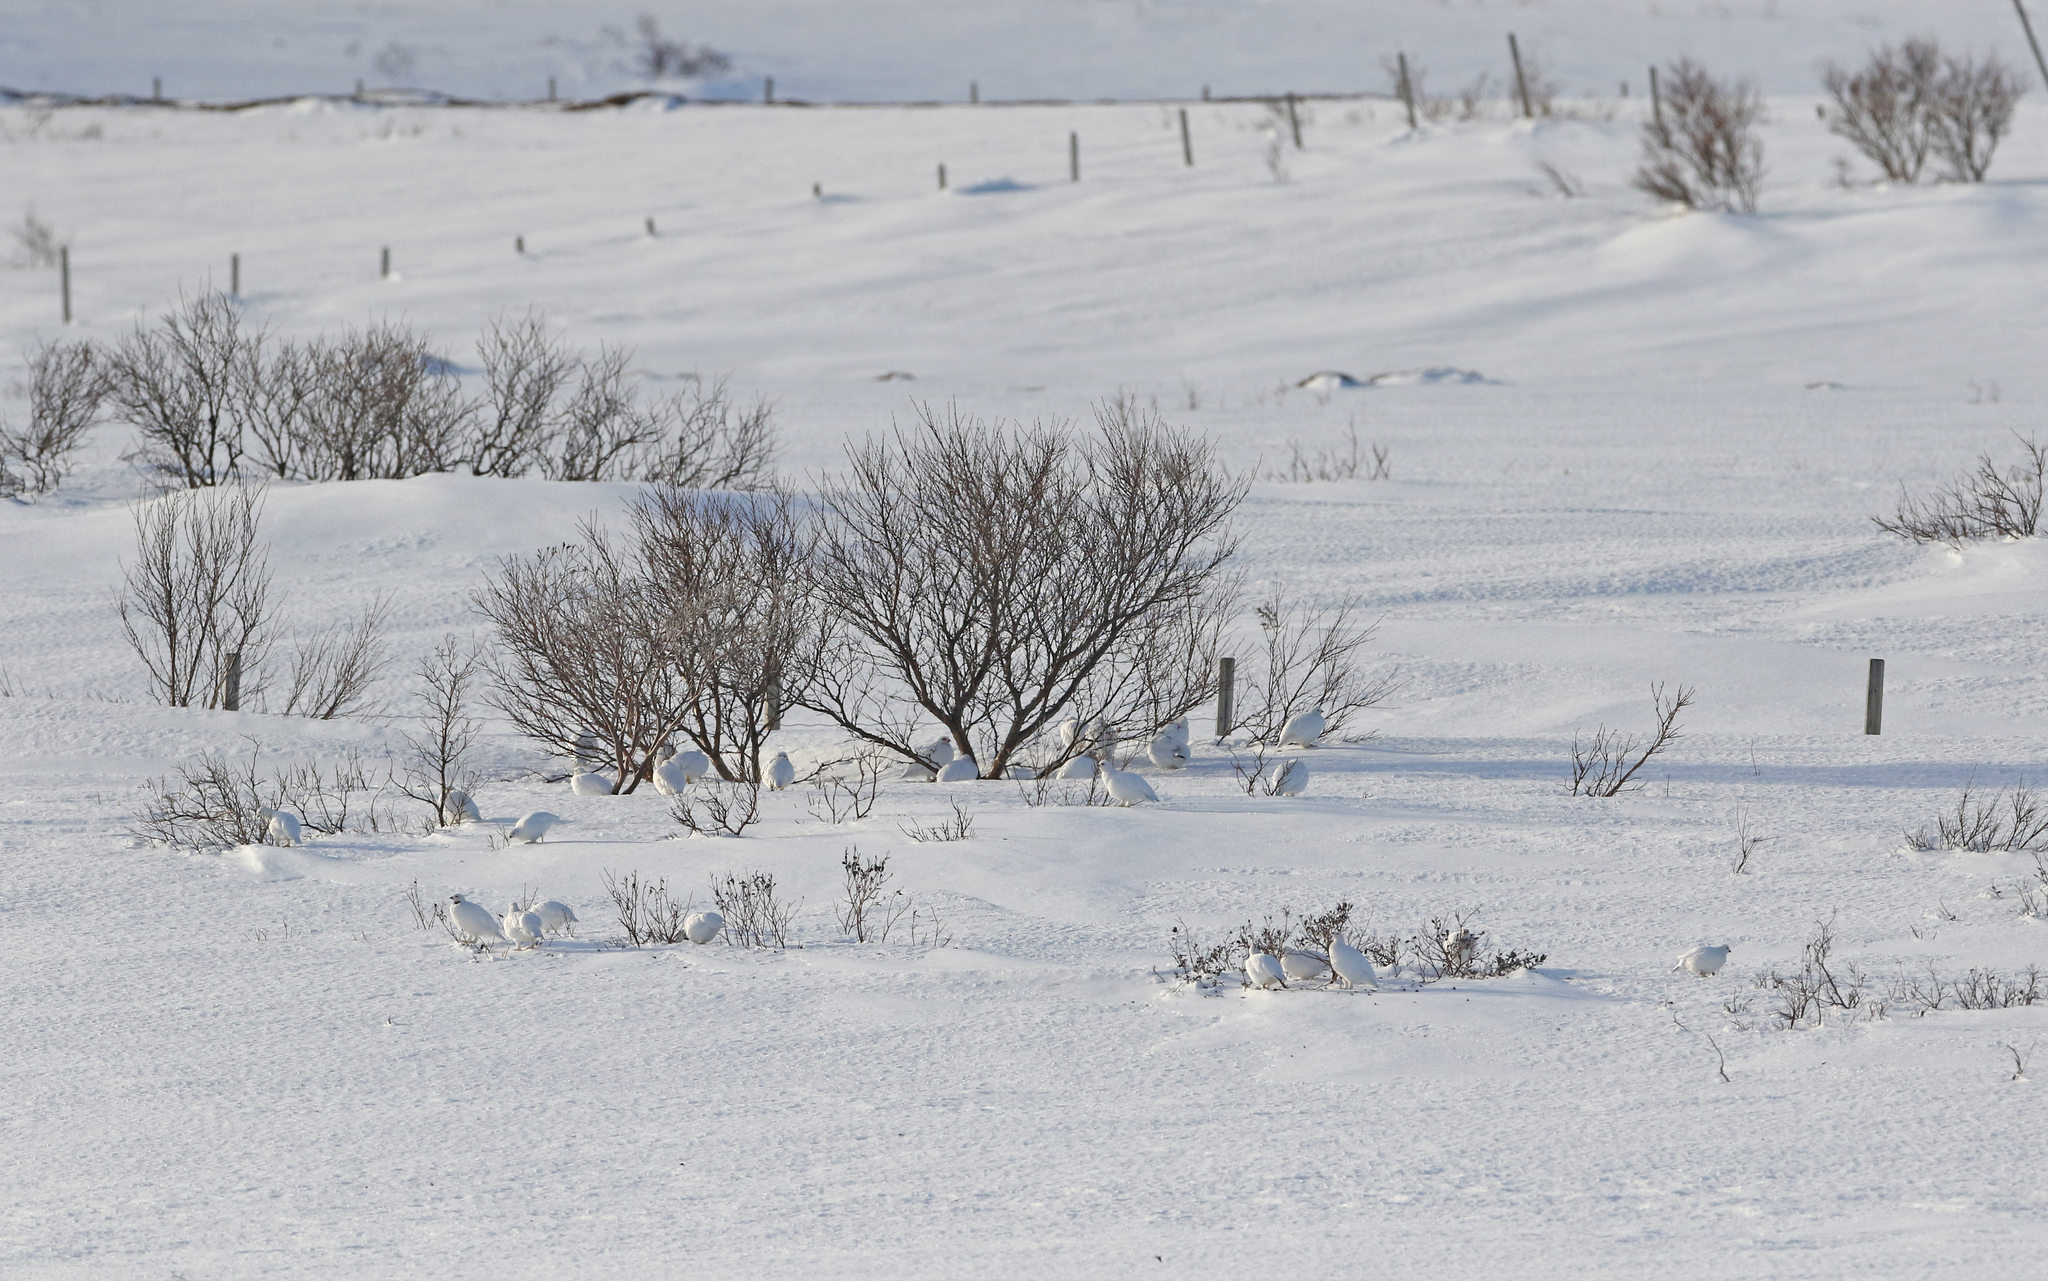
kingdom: Animalia
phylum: Chordata
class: Aves
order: Galliformes
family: Phasianidae
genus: Lagopus
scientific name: Lagopus lagopus
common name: Willow ptarmigan
